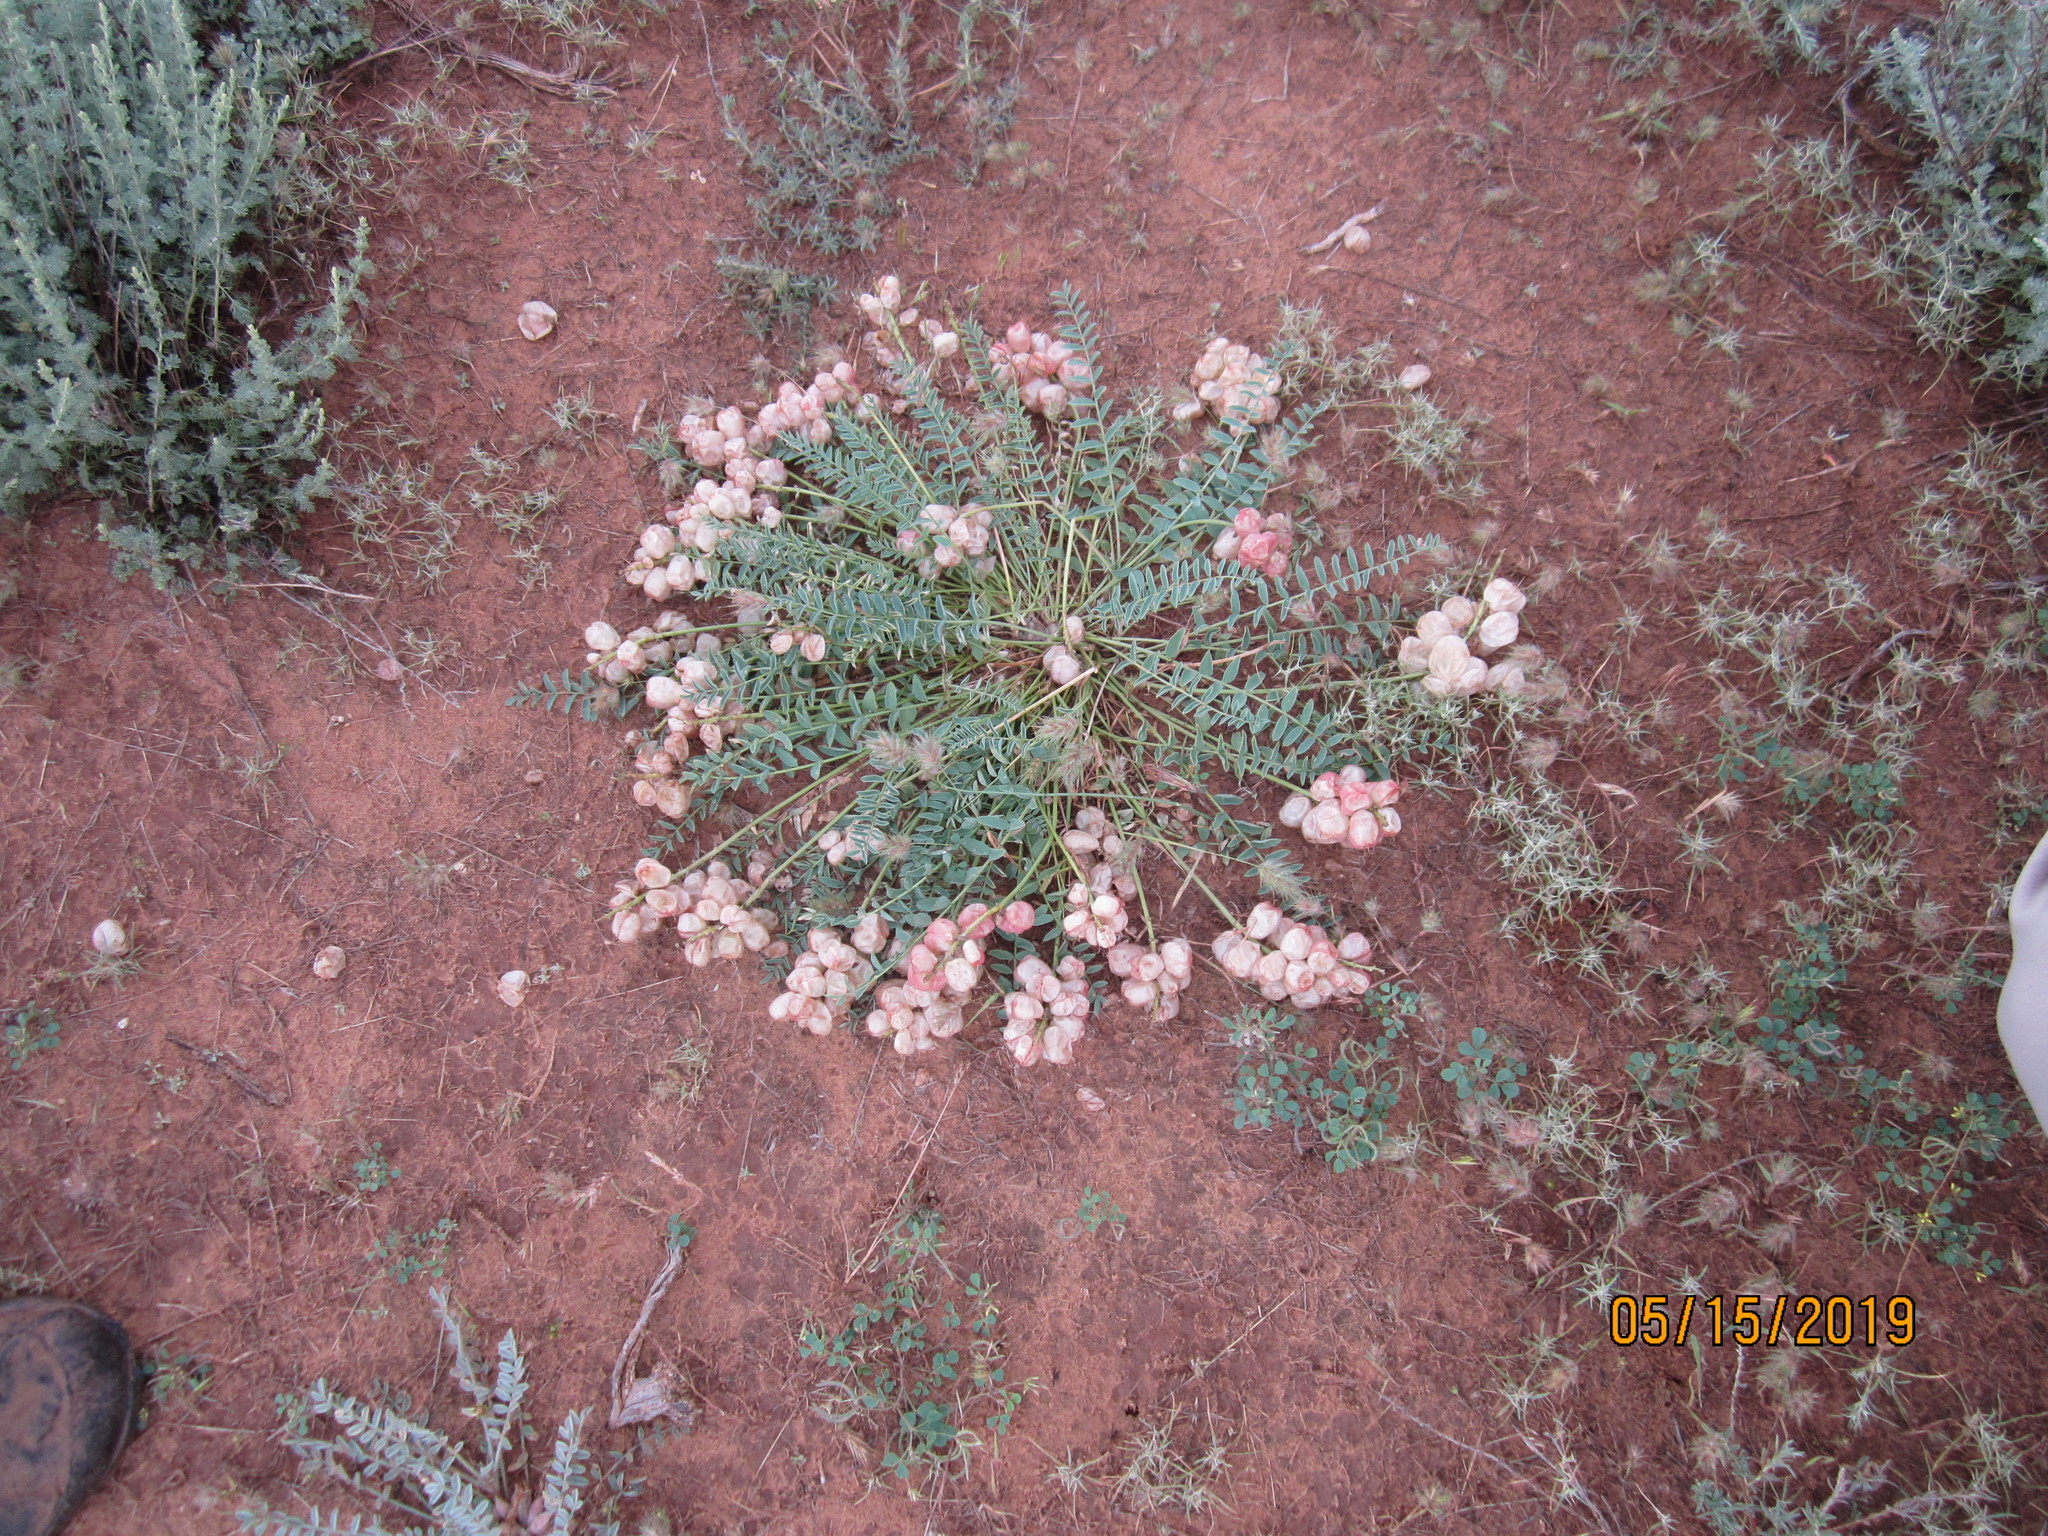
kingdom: Plantae
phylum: Tracheophyta
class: Magnoliopsida
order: Fabales
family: Fabaceae
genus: Astragalus
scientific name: Astragalus physodes
